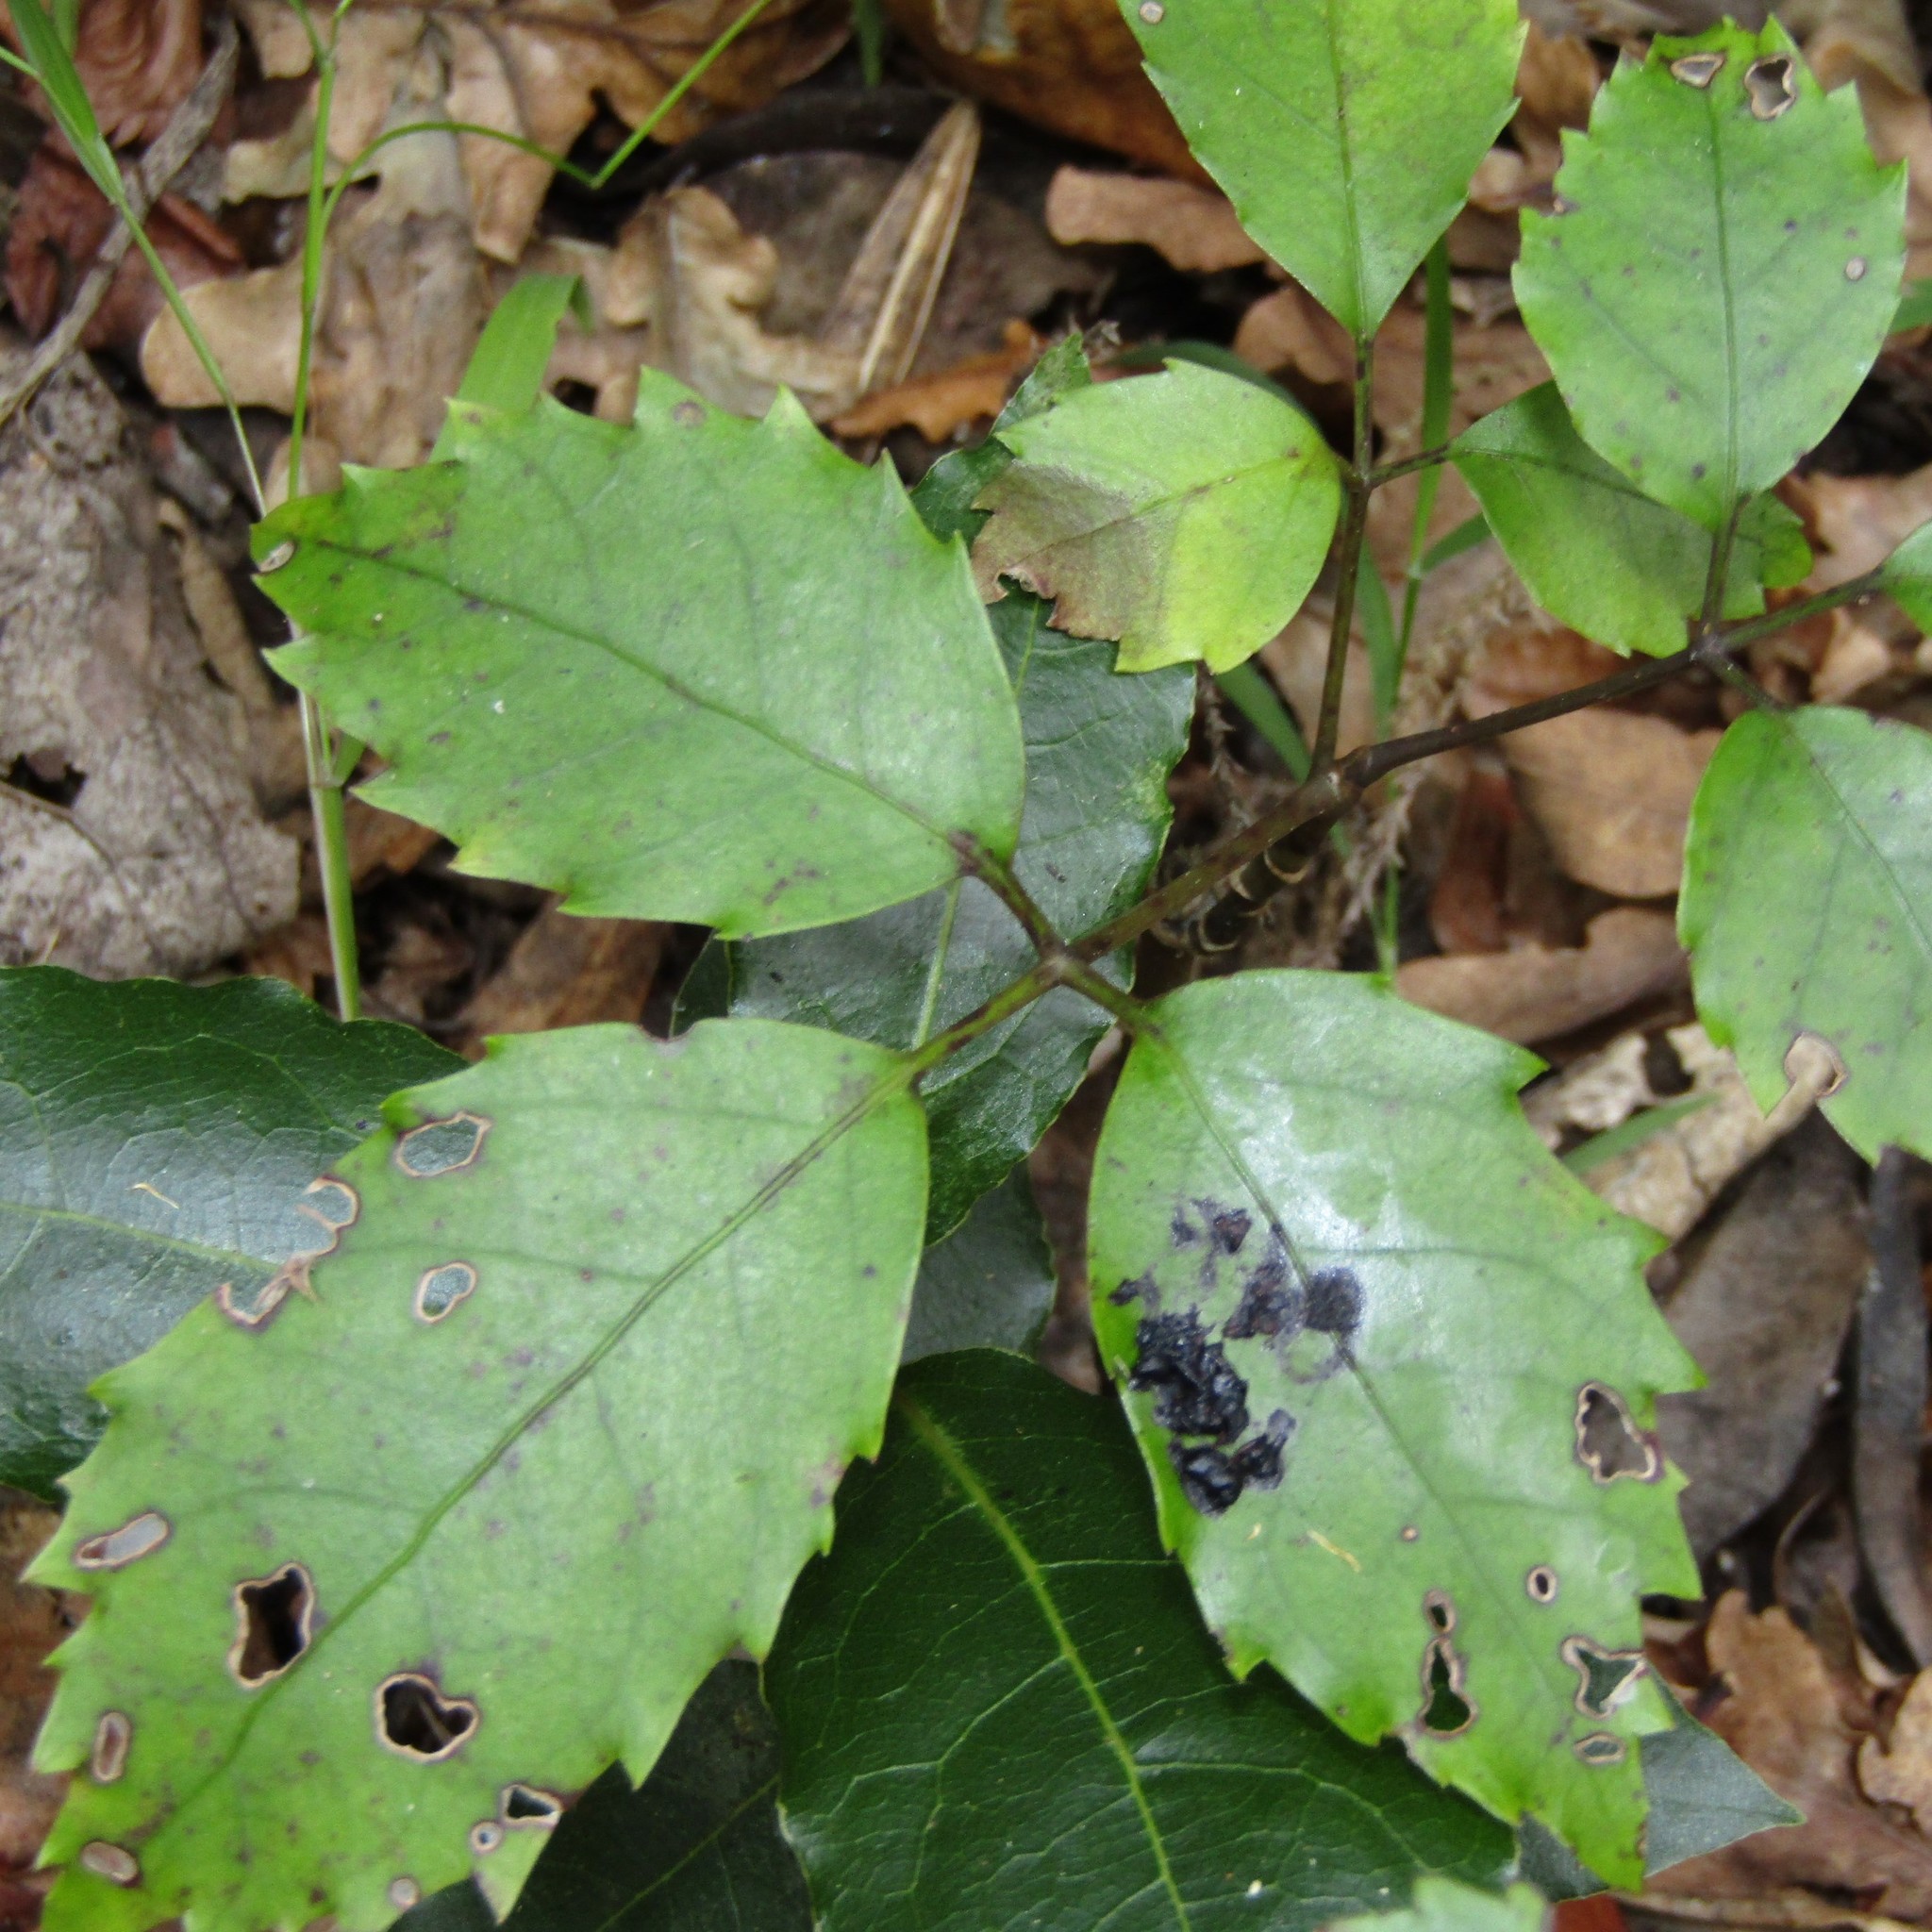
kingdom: Plantae
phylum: Tracheophyta
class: Magnoliopsida
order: Apiales
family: Araliaceae
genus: Neopanax
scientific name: Neopanax arboreus
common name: Five-fingers
